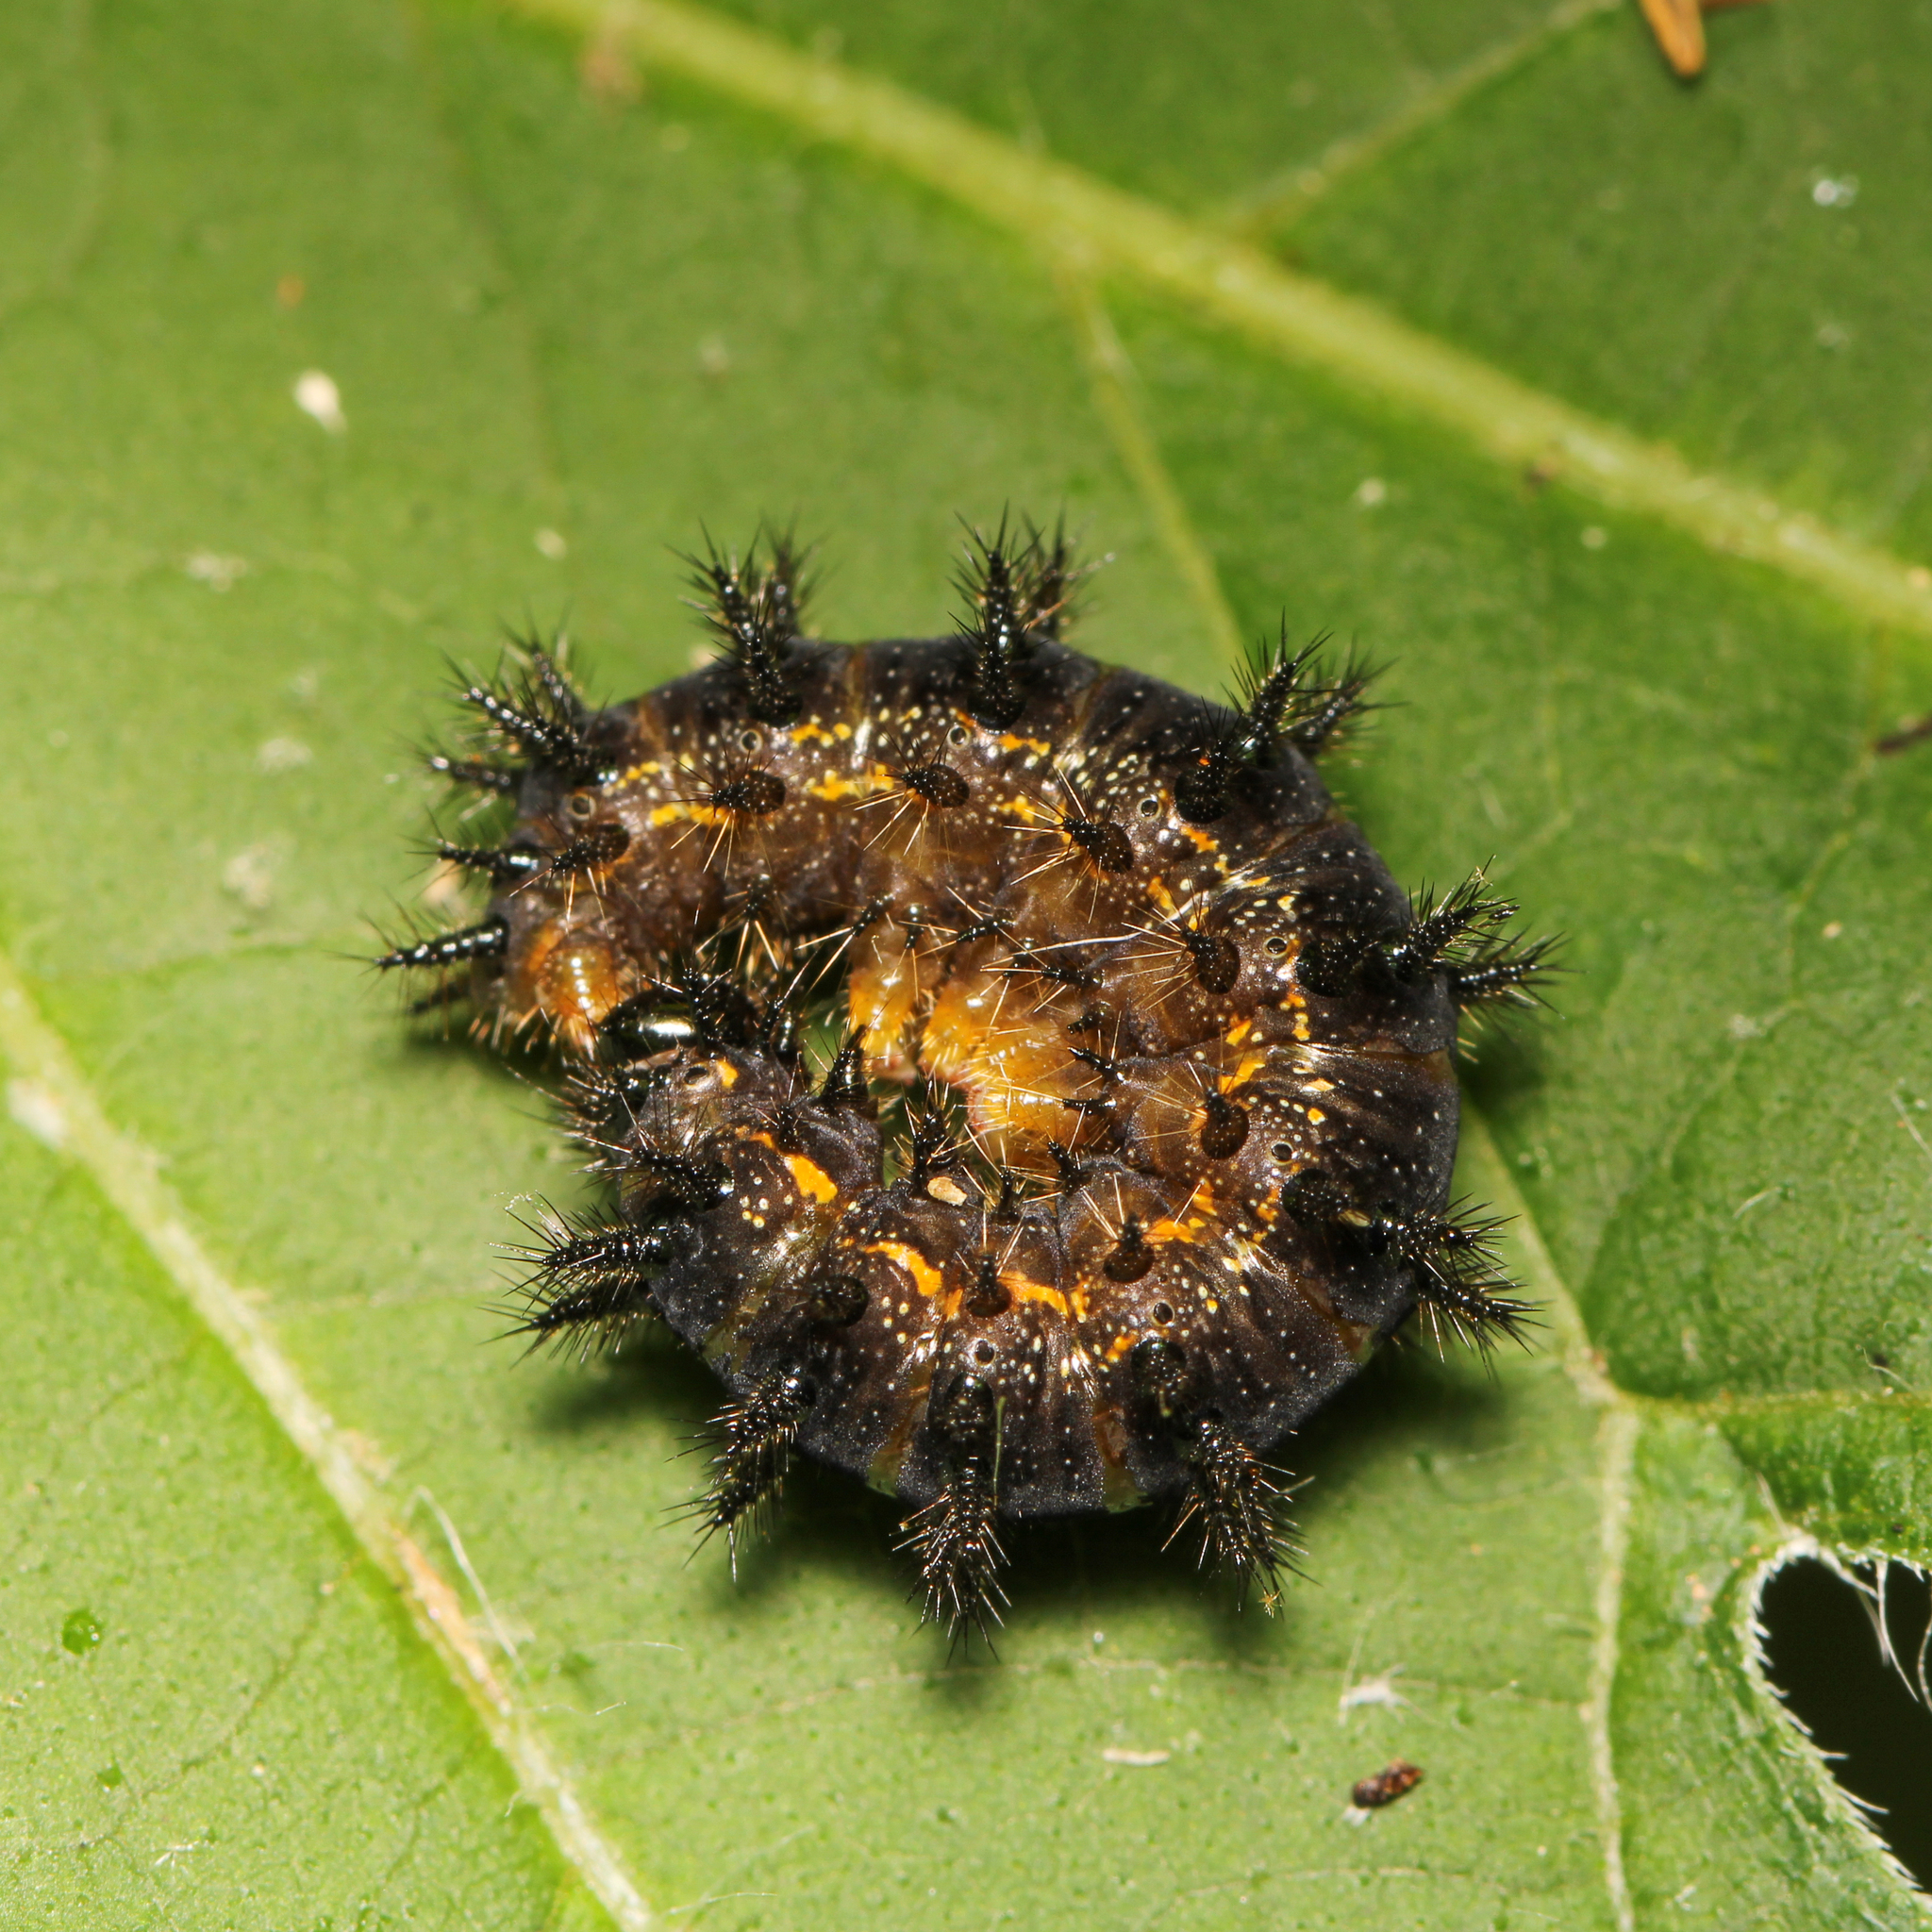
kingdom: Animalia
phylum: Arthropoda
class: Insecta
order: Lepidoptera
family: Nymphalidae
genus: Chlosyne
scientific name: Chlosyne nycteis
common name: Silvery checkerspot
